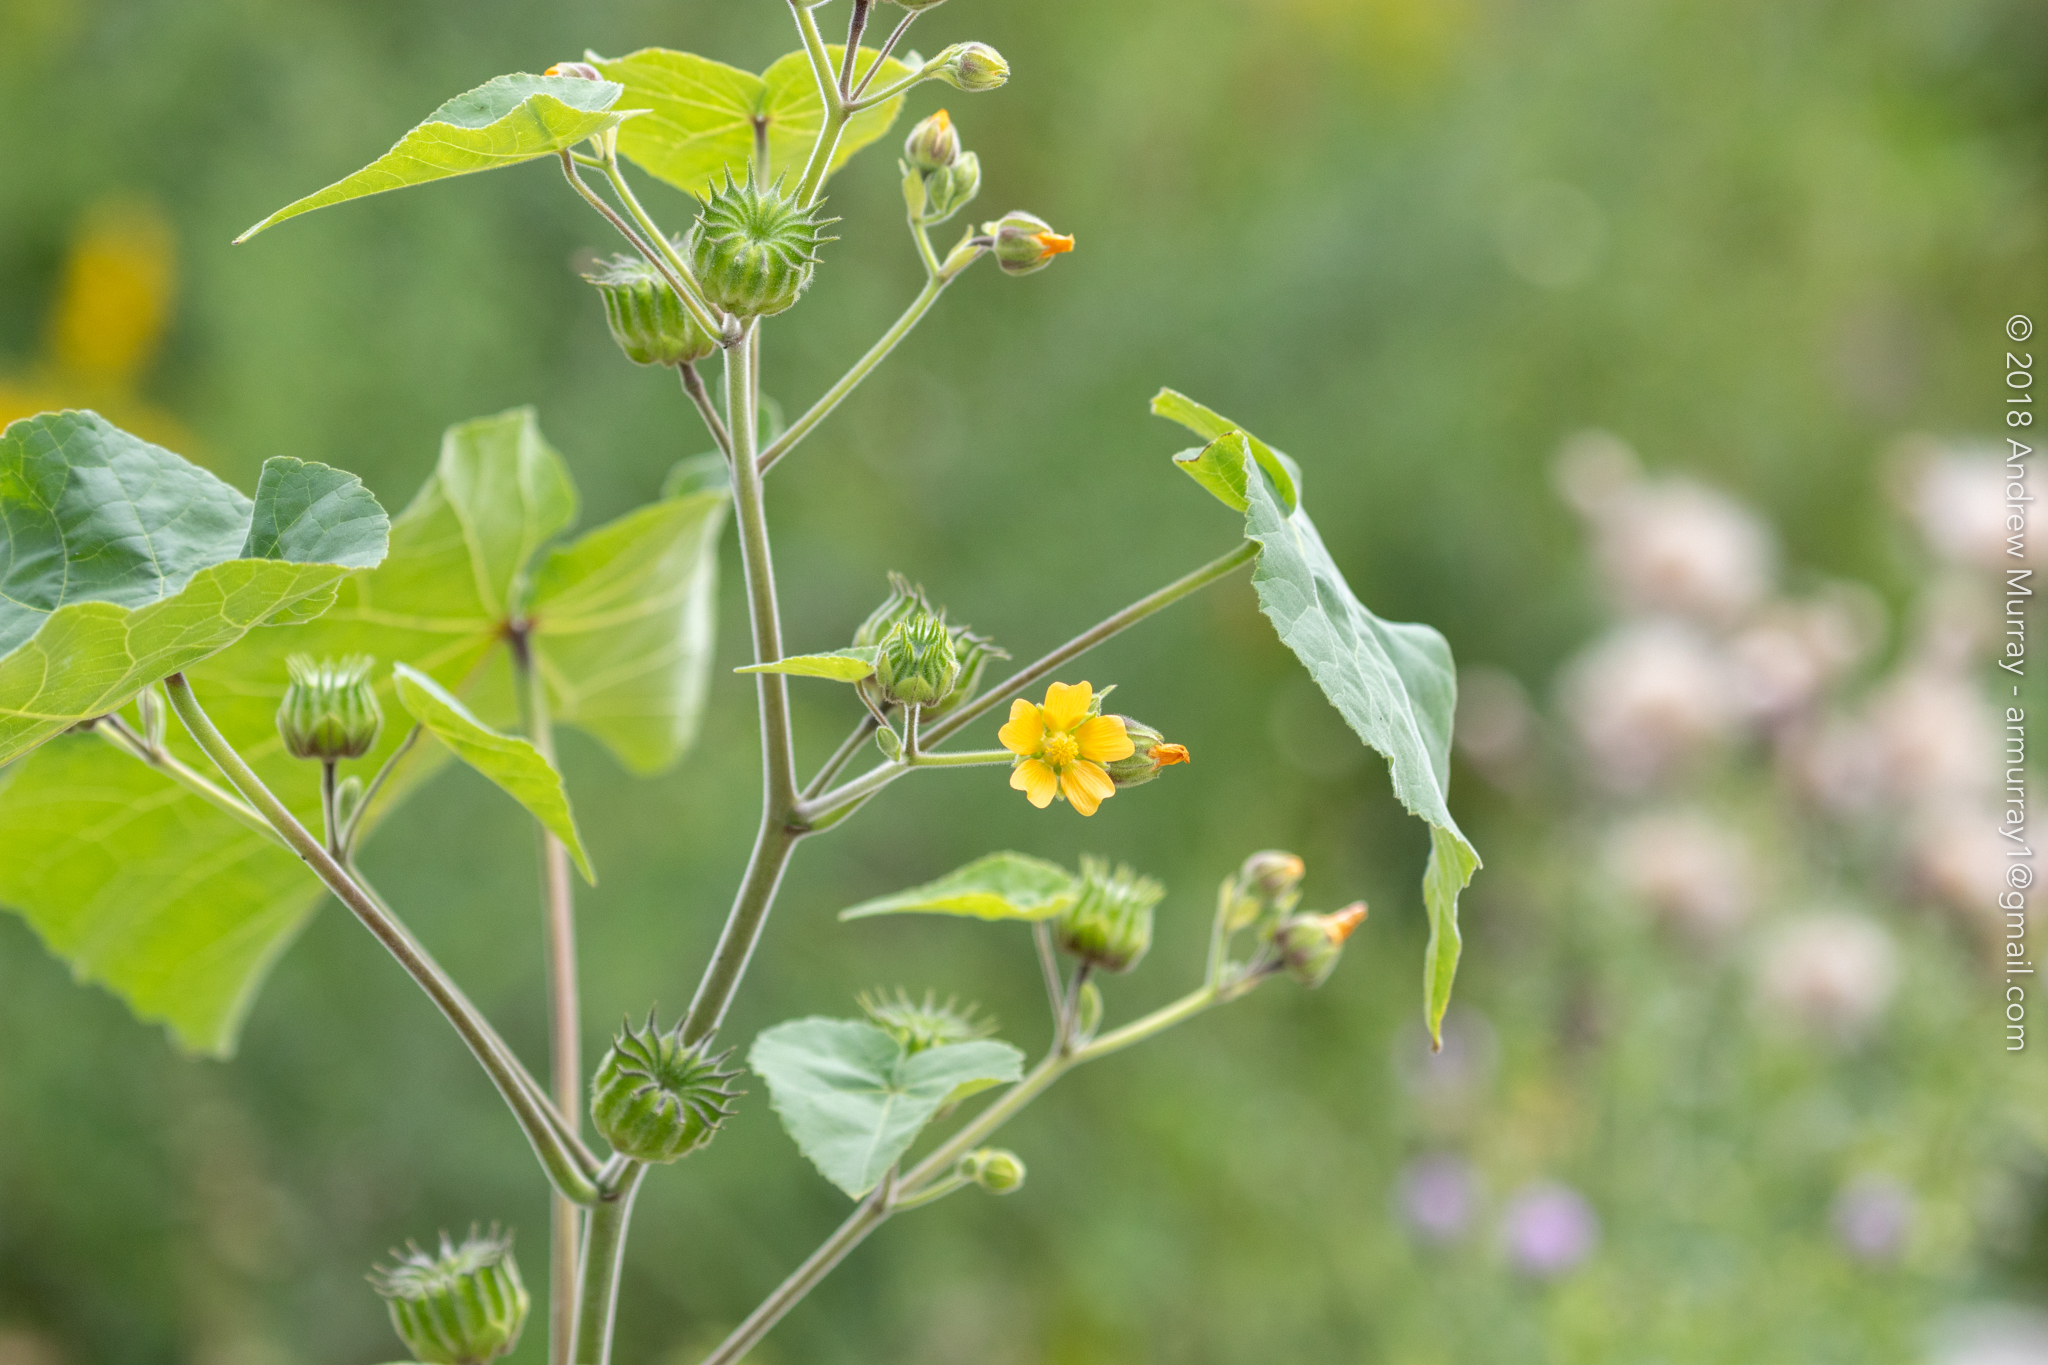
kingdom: Plantae
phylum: Tracheophyta
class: Magnoliopsida
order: Malvales
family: Malvaceae
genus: Abutilon
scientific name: Abutilon theophrasti
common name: Velvetleaf
